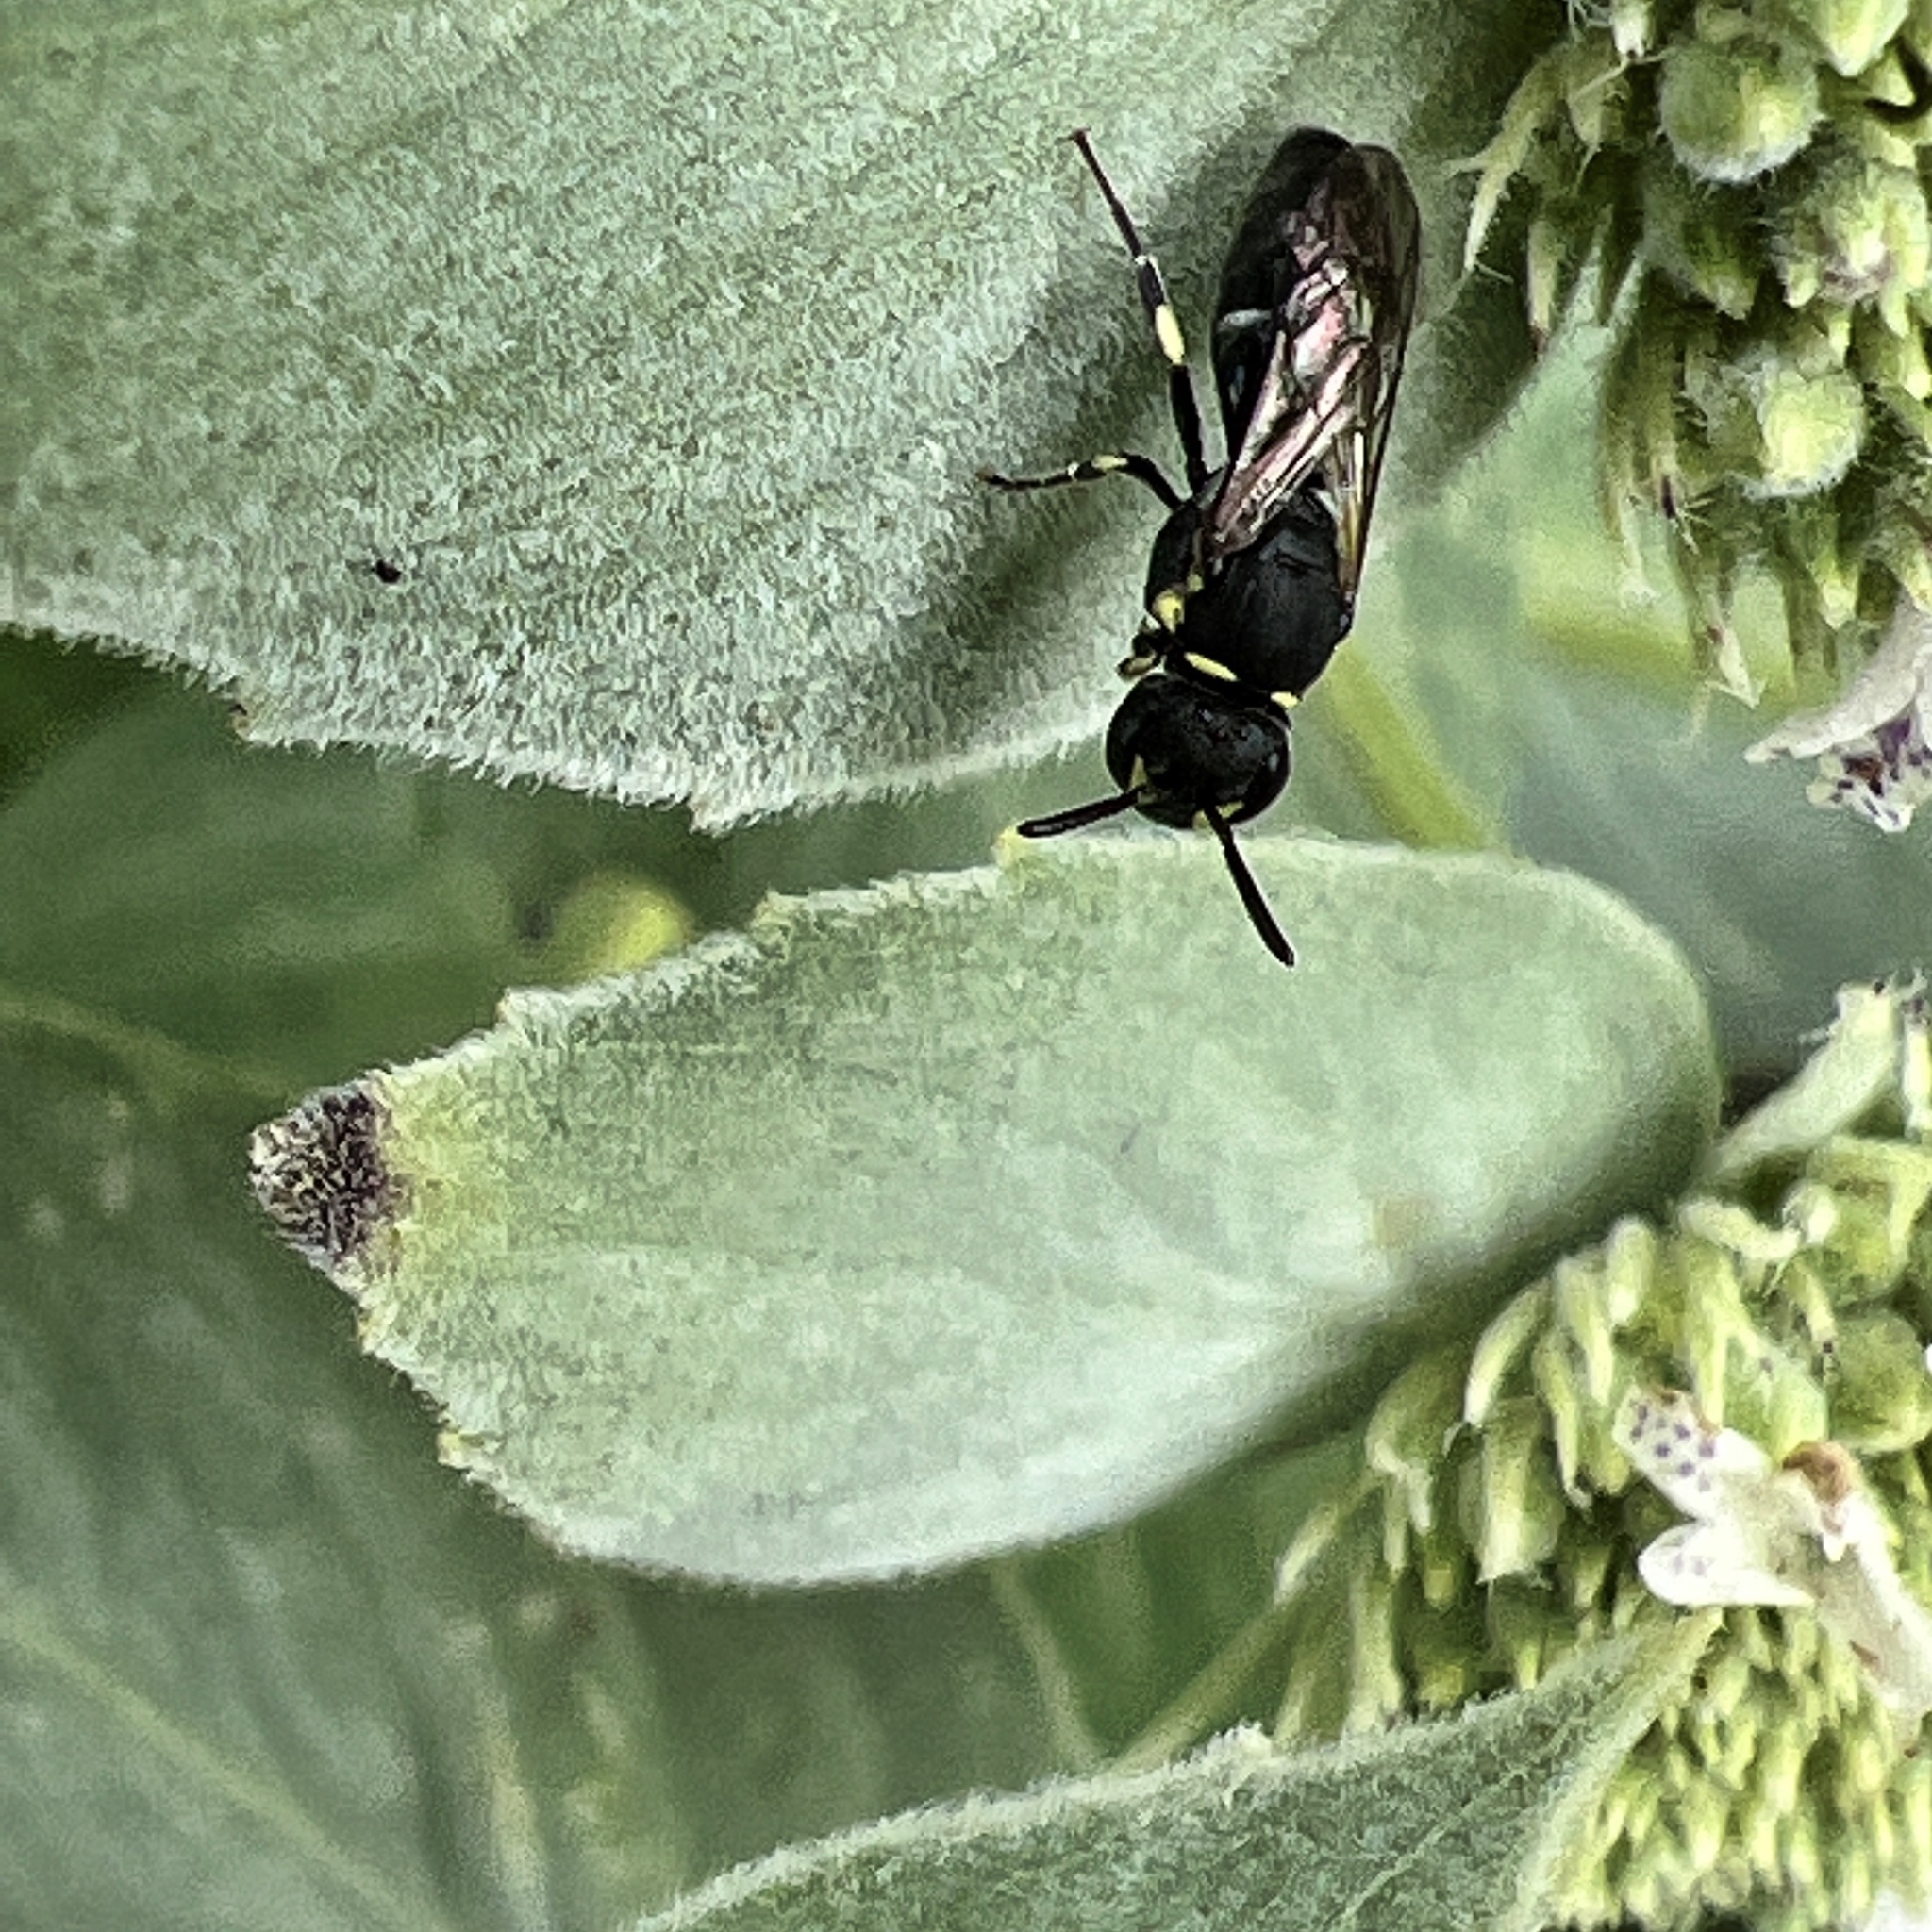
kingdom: Animalia
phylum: Arthropoda
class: Insecta
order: Hymenoptera
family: Colletidae
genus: Prosopis
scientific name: Prosopis
